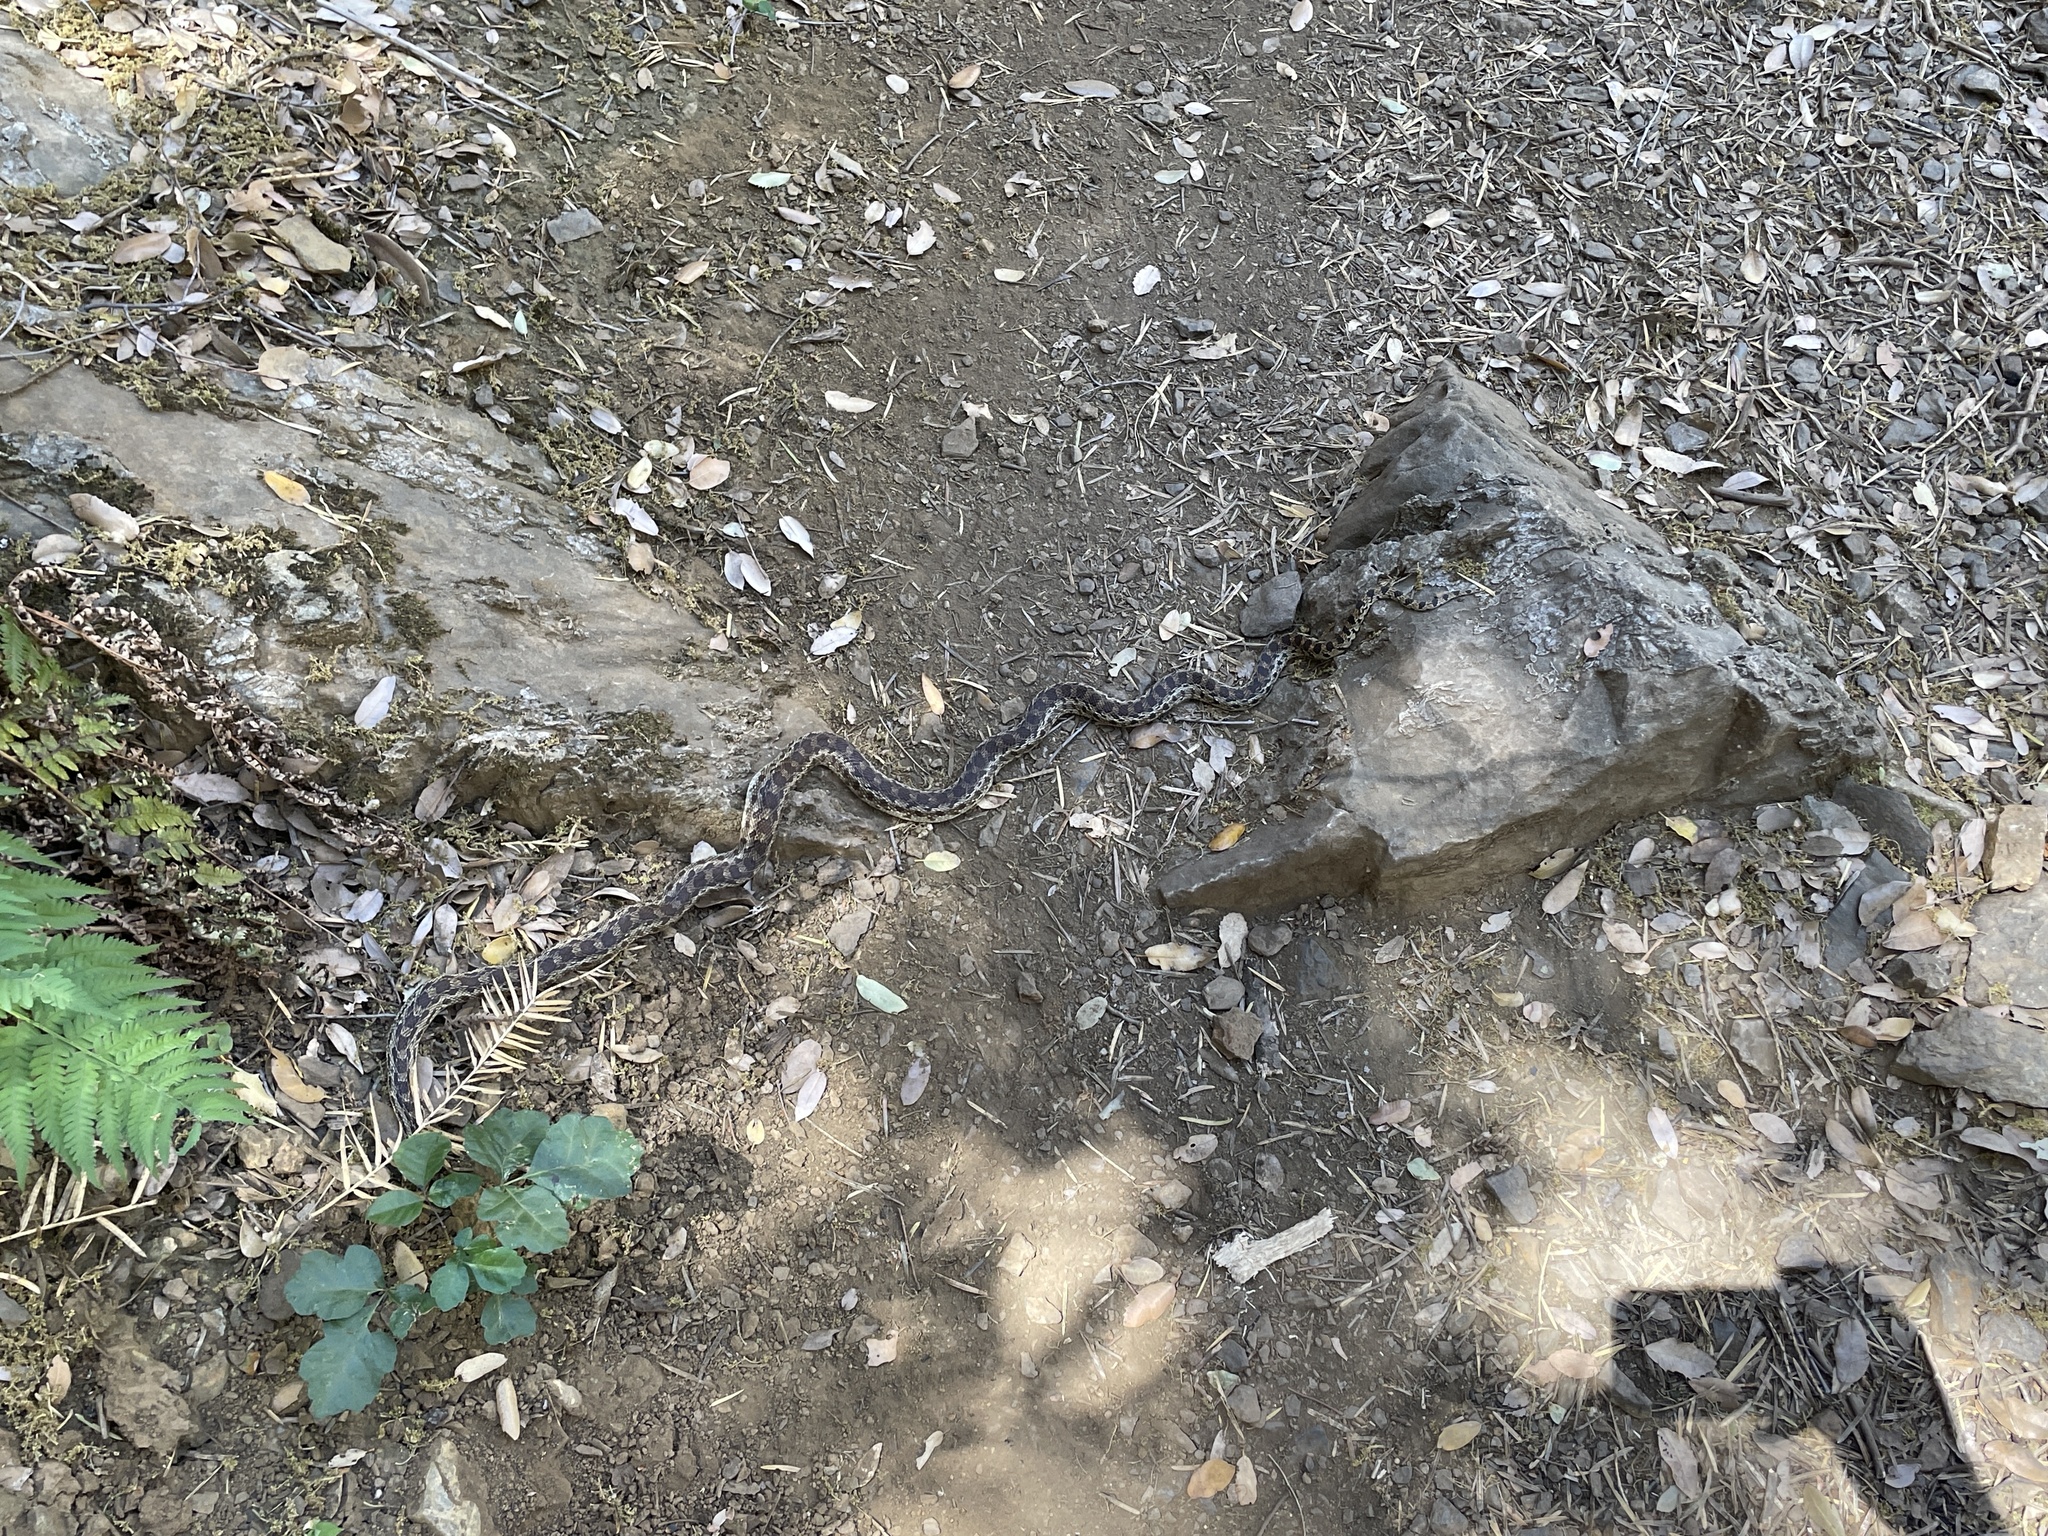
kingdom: Animalia
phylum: Chordata
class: Squamata
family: Colubridae
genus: Pituophis
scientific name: Pituophis catenifer
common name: Gopher snake
